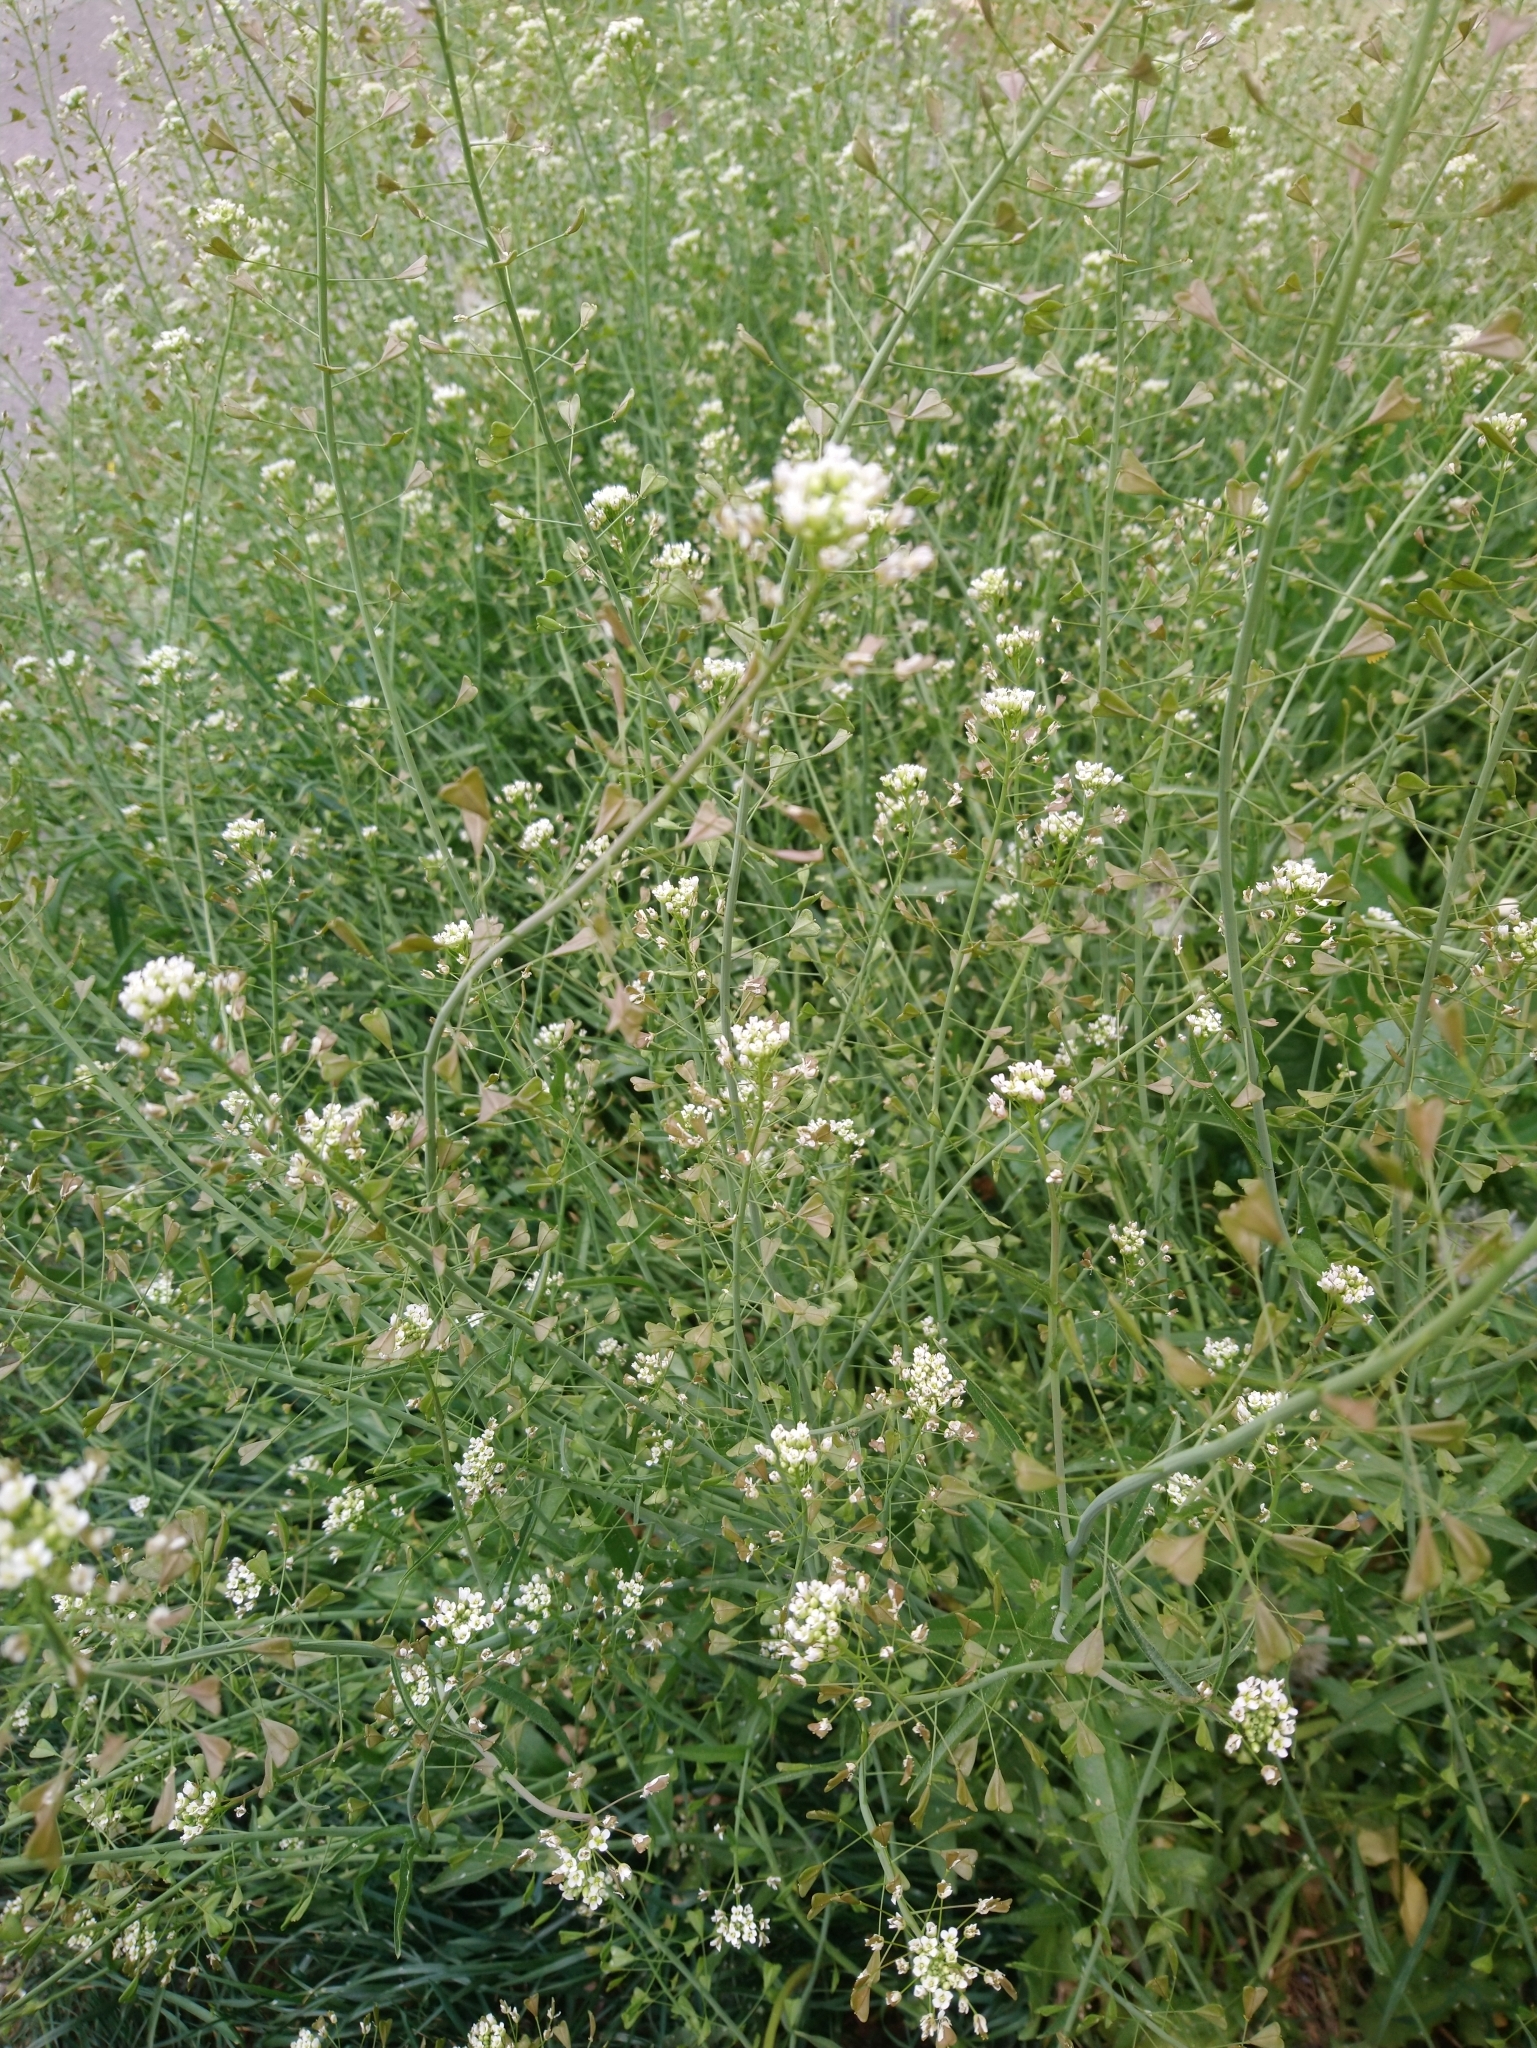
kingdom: Plantae
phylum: Tracheophyta
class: Magnoliopsida
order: Brassicales
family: Brassicaceae
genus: Capsella
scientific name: Capsella bursa-pastoris
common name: Shepherd's purse
